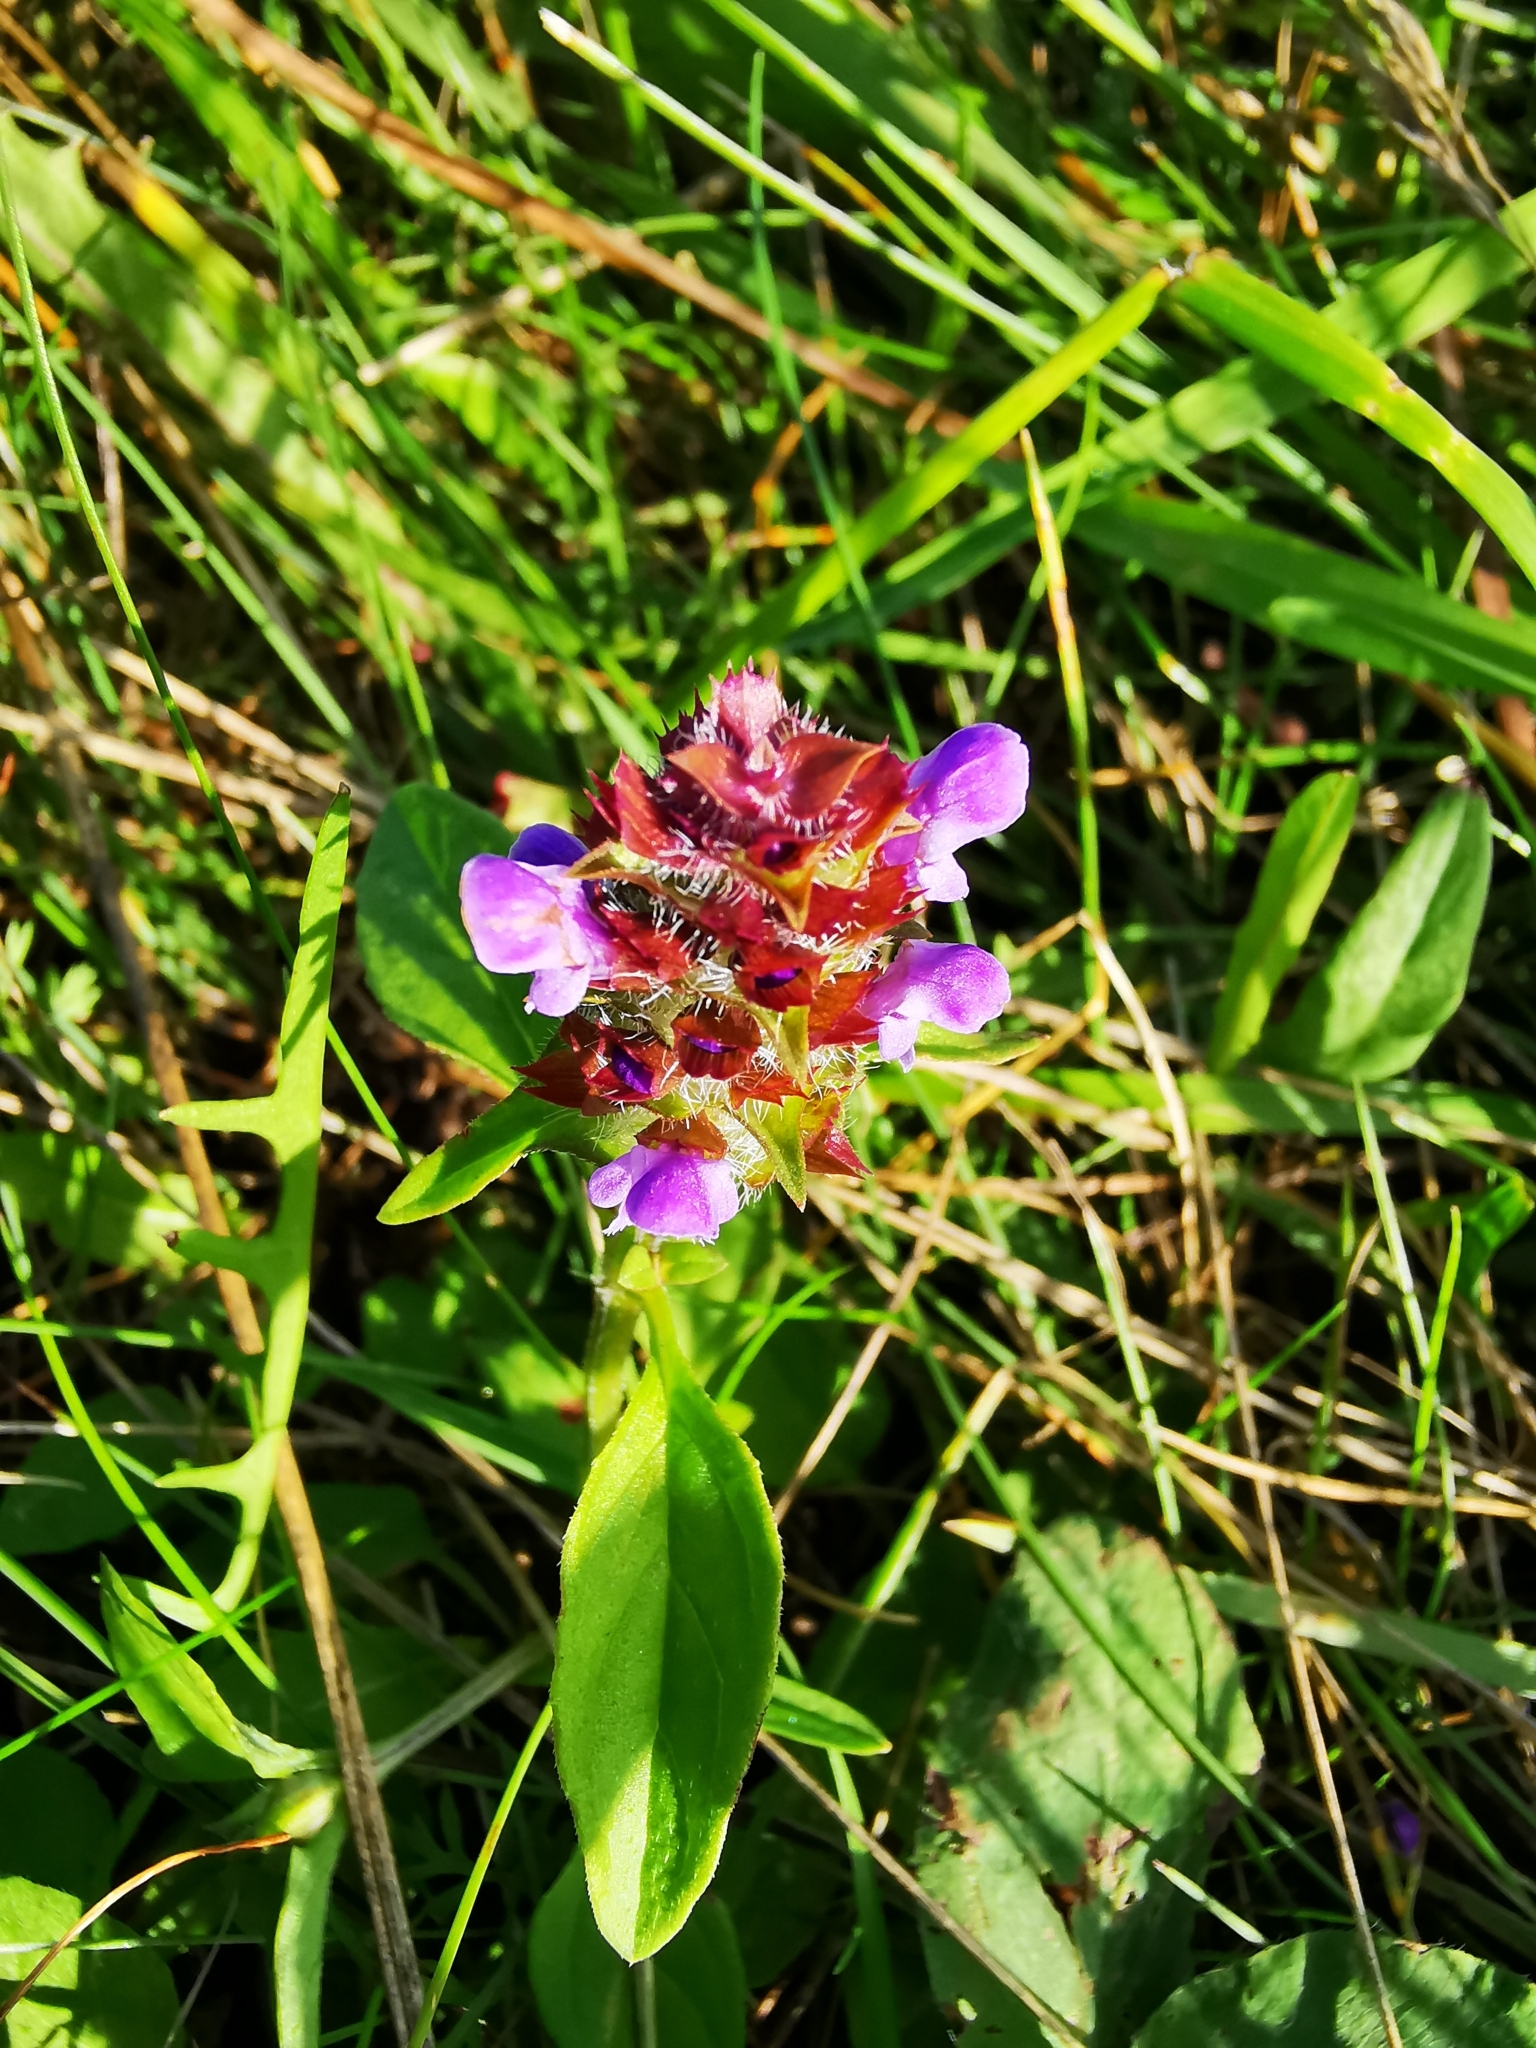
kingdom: Plantae
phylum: Tracheophyta
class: Magnoliopsida
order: Lamiales
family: Lamiaceae
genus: Prunella
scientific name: Prunella vulgaris
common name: Heal-all
